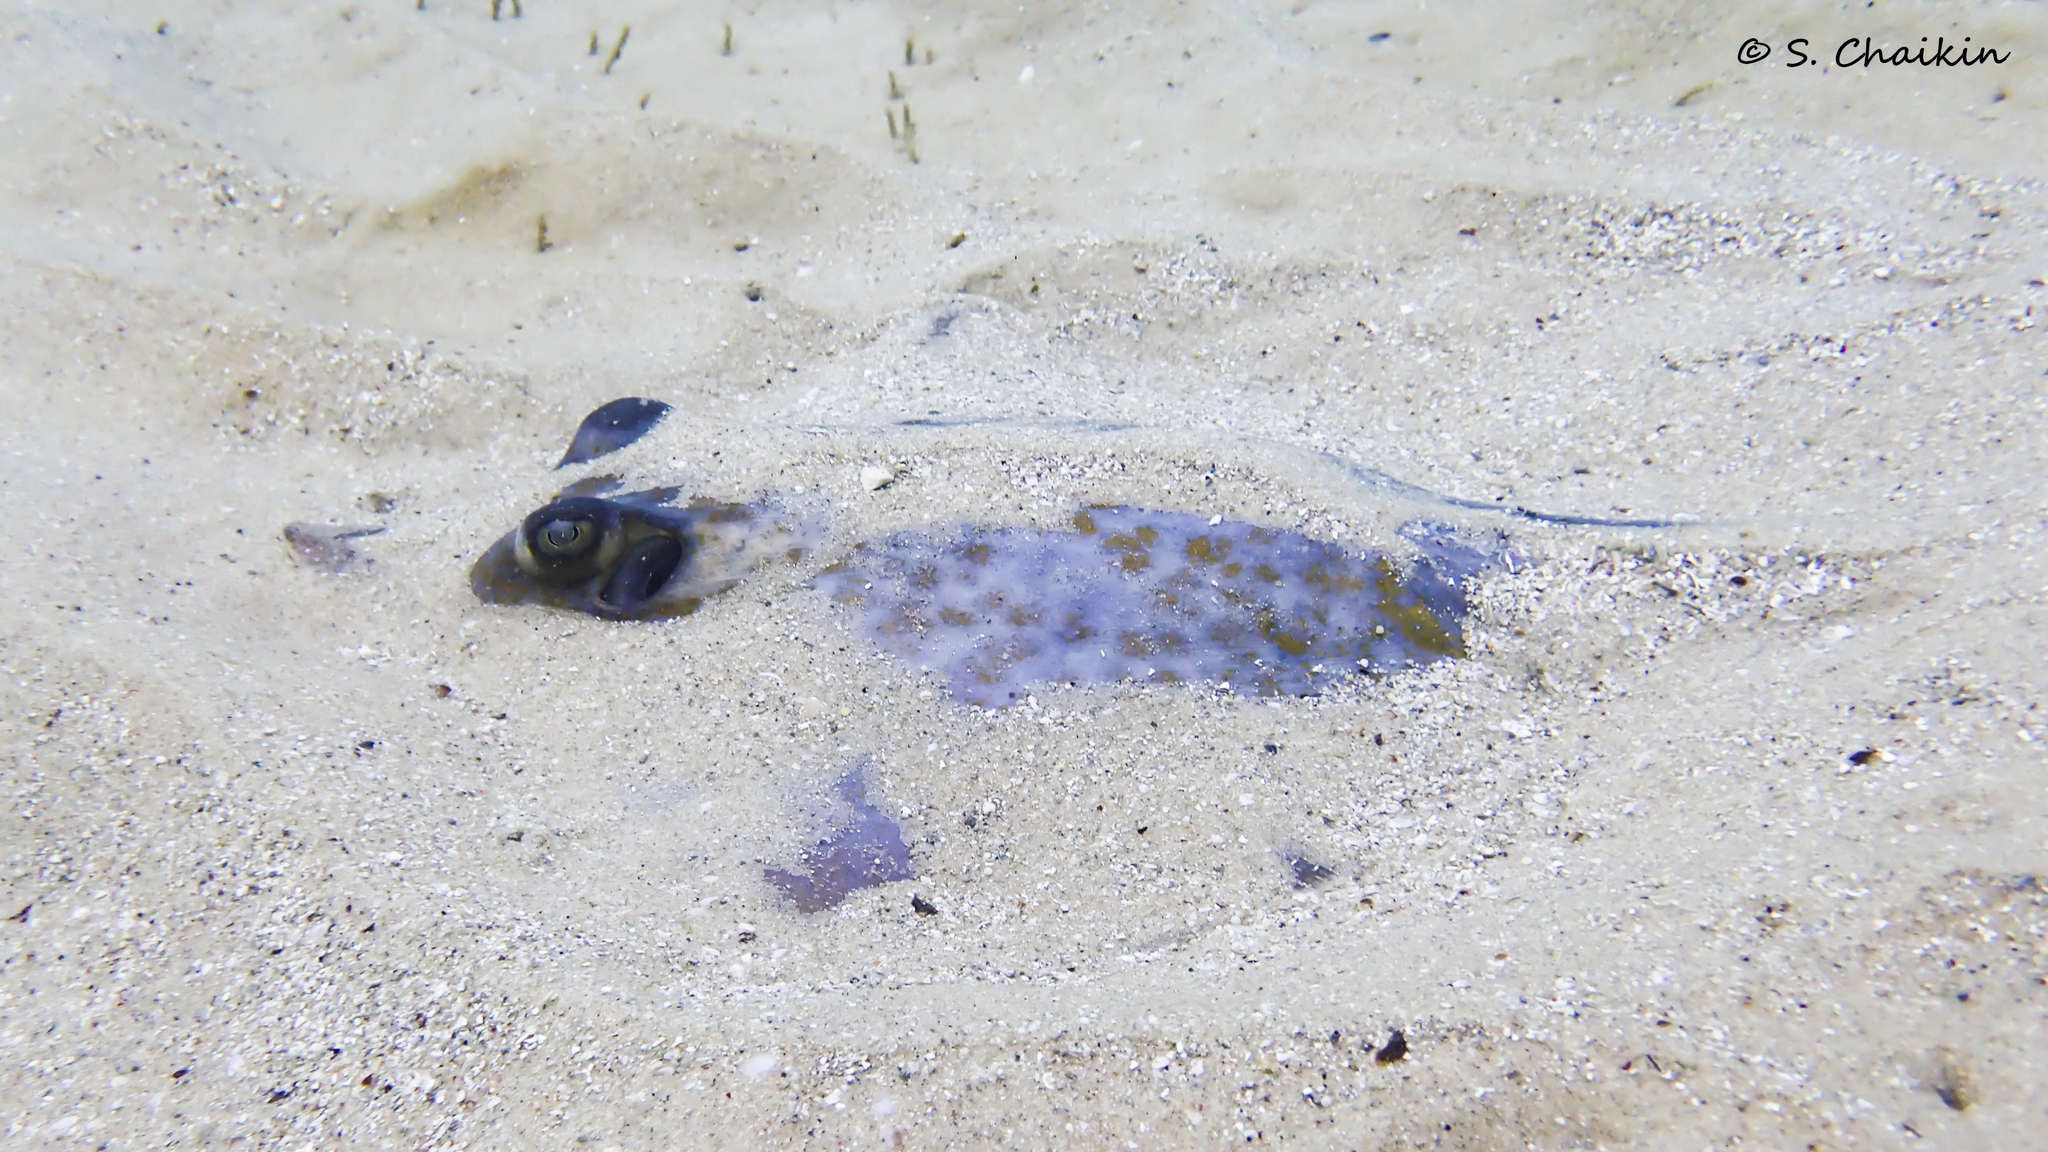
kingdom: Animalia
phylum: Chordata
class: Elasmobranchii
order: Myliobatiformes
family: Dasyatidae
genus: Dasyatis
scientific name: Dasyatis marmorata
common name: Marbled stingray
